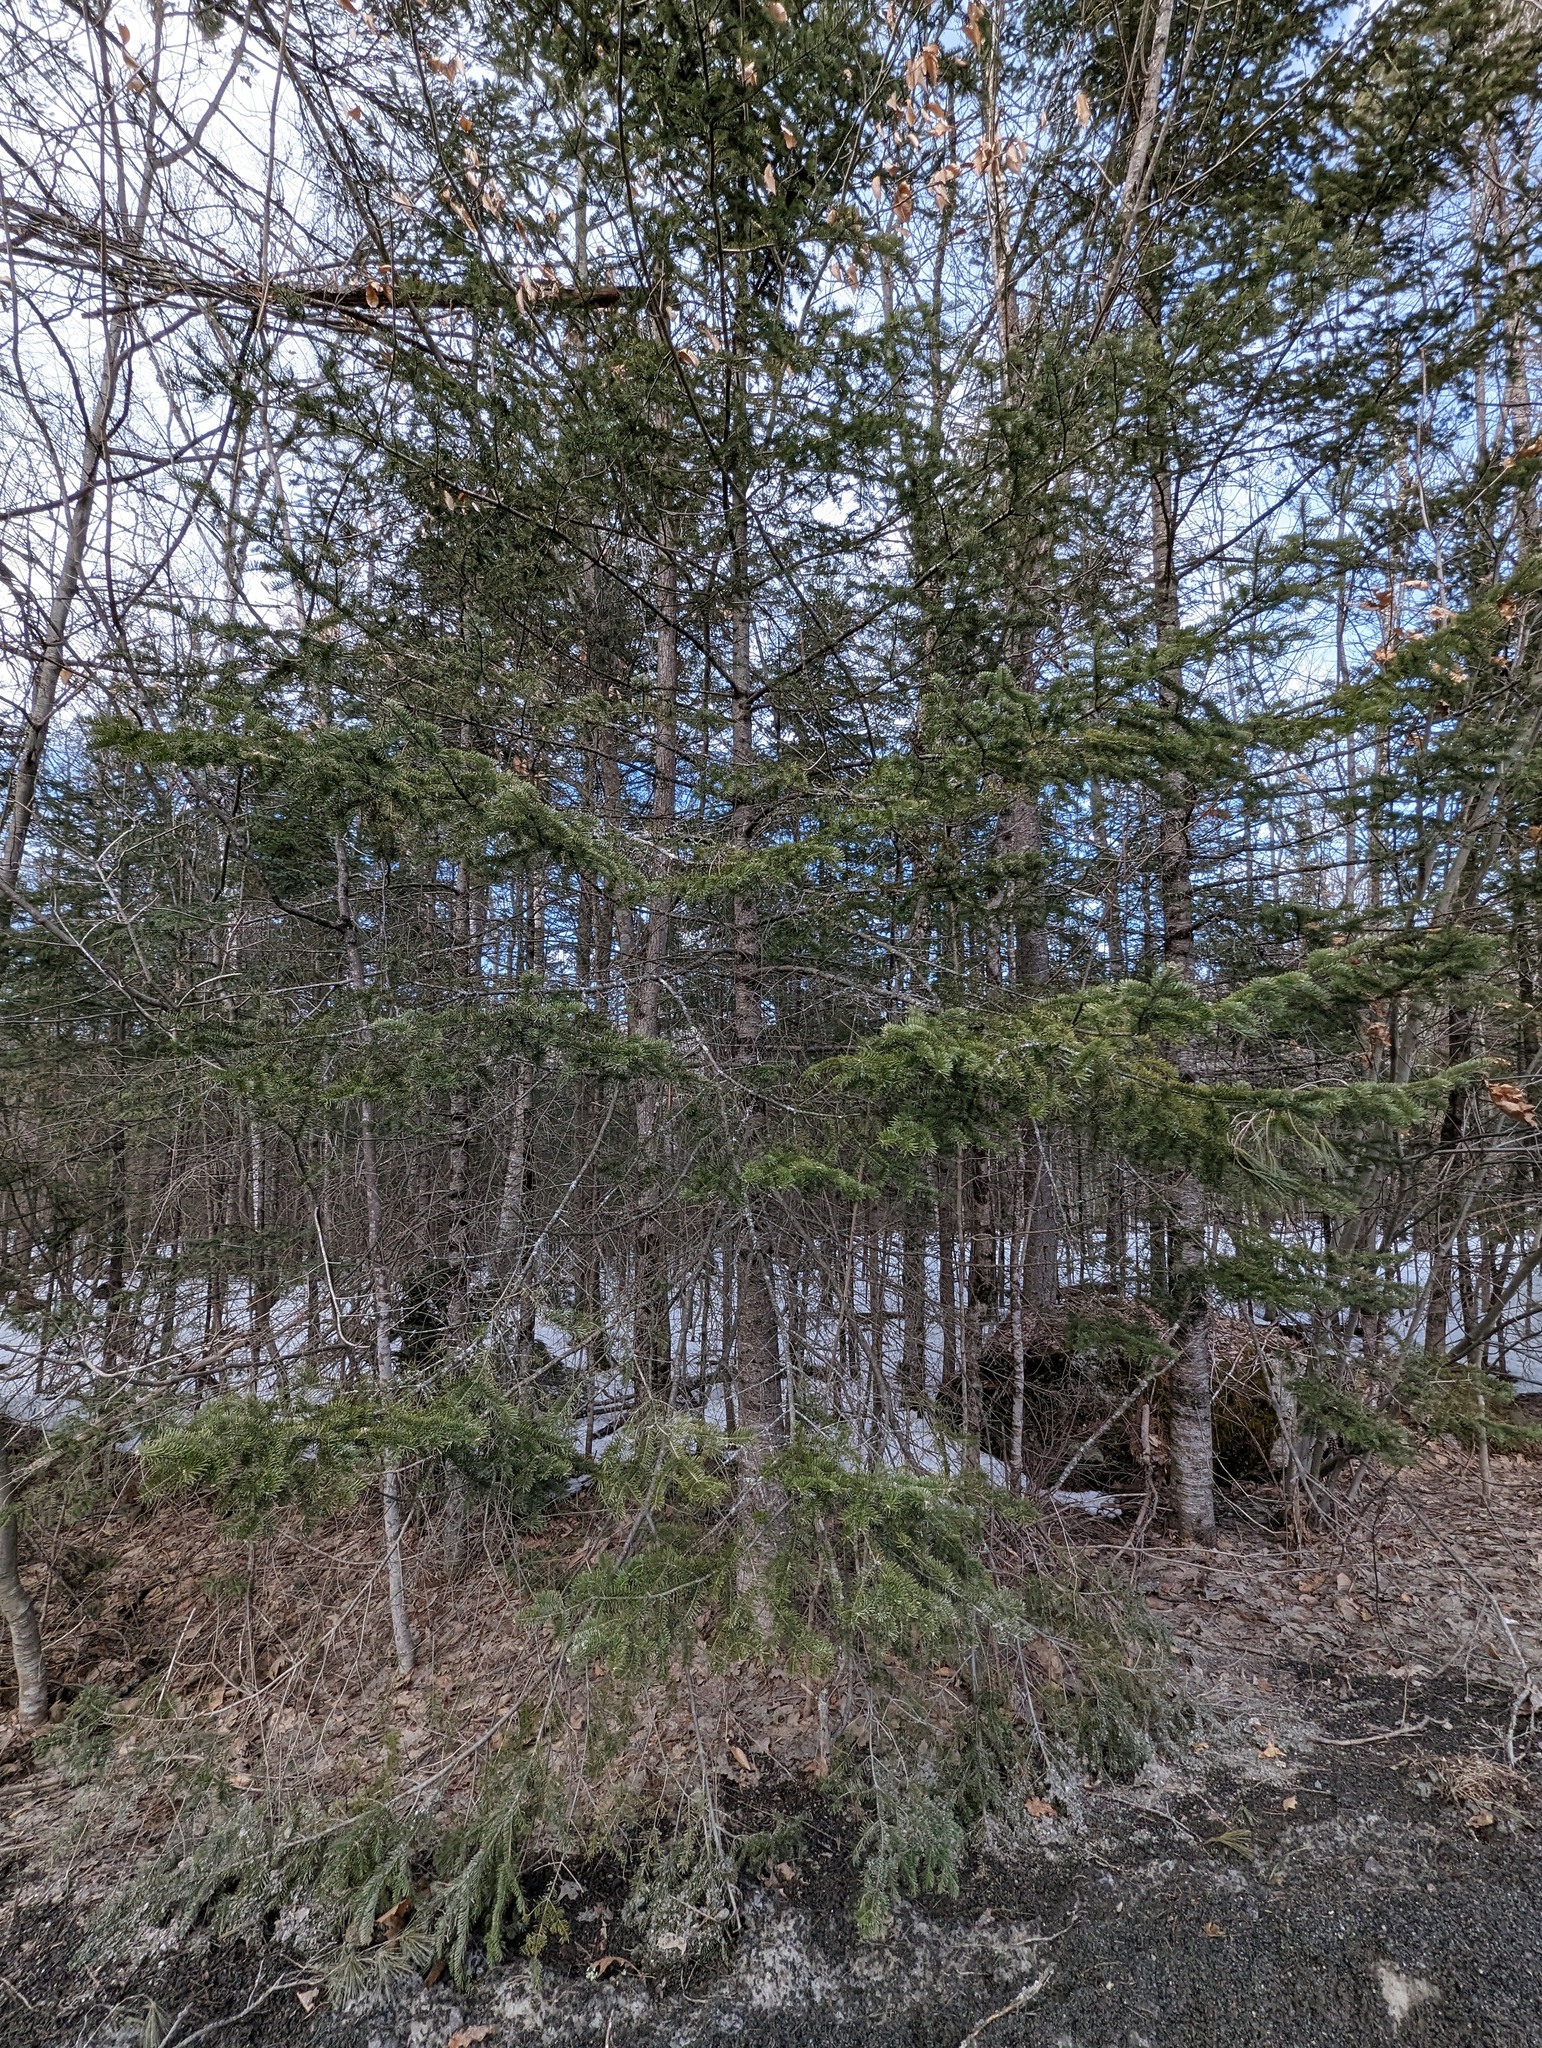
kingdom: Plantae
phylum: Tracheophyta
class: Pinopsida
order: Pinales
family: Pinaceae
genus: Abies
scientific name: Abies balsamea
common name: Balsam fir
